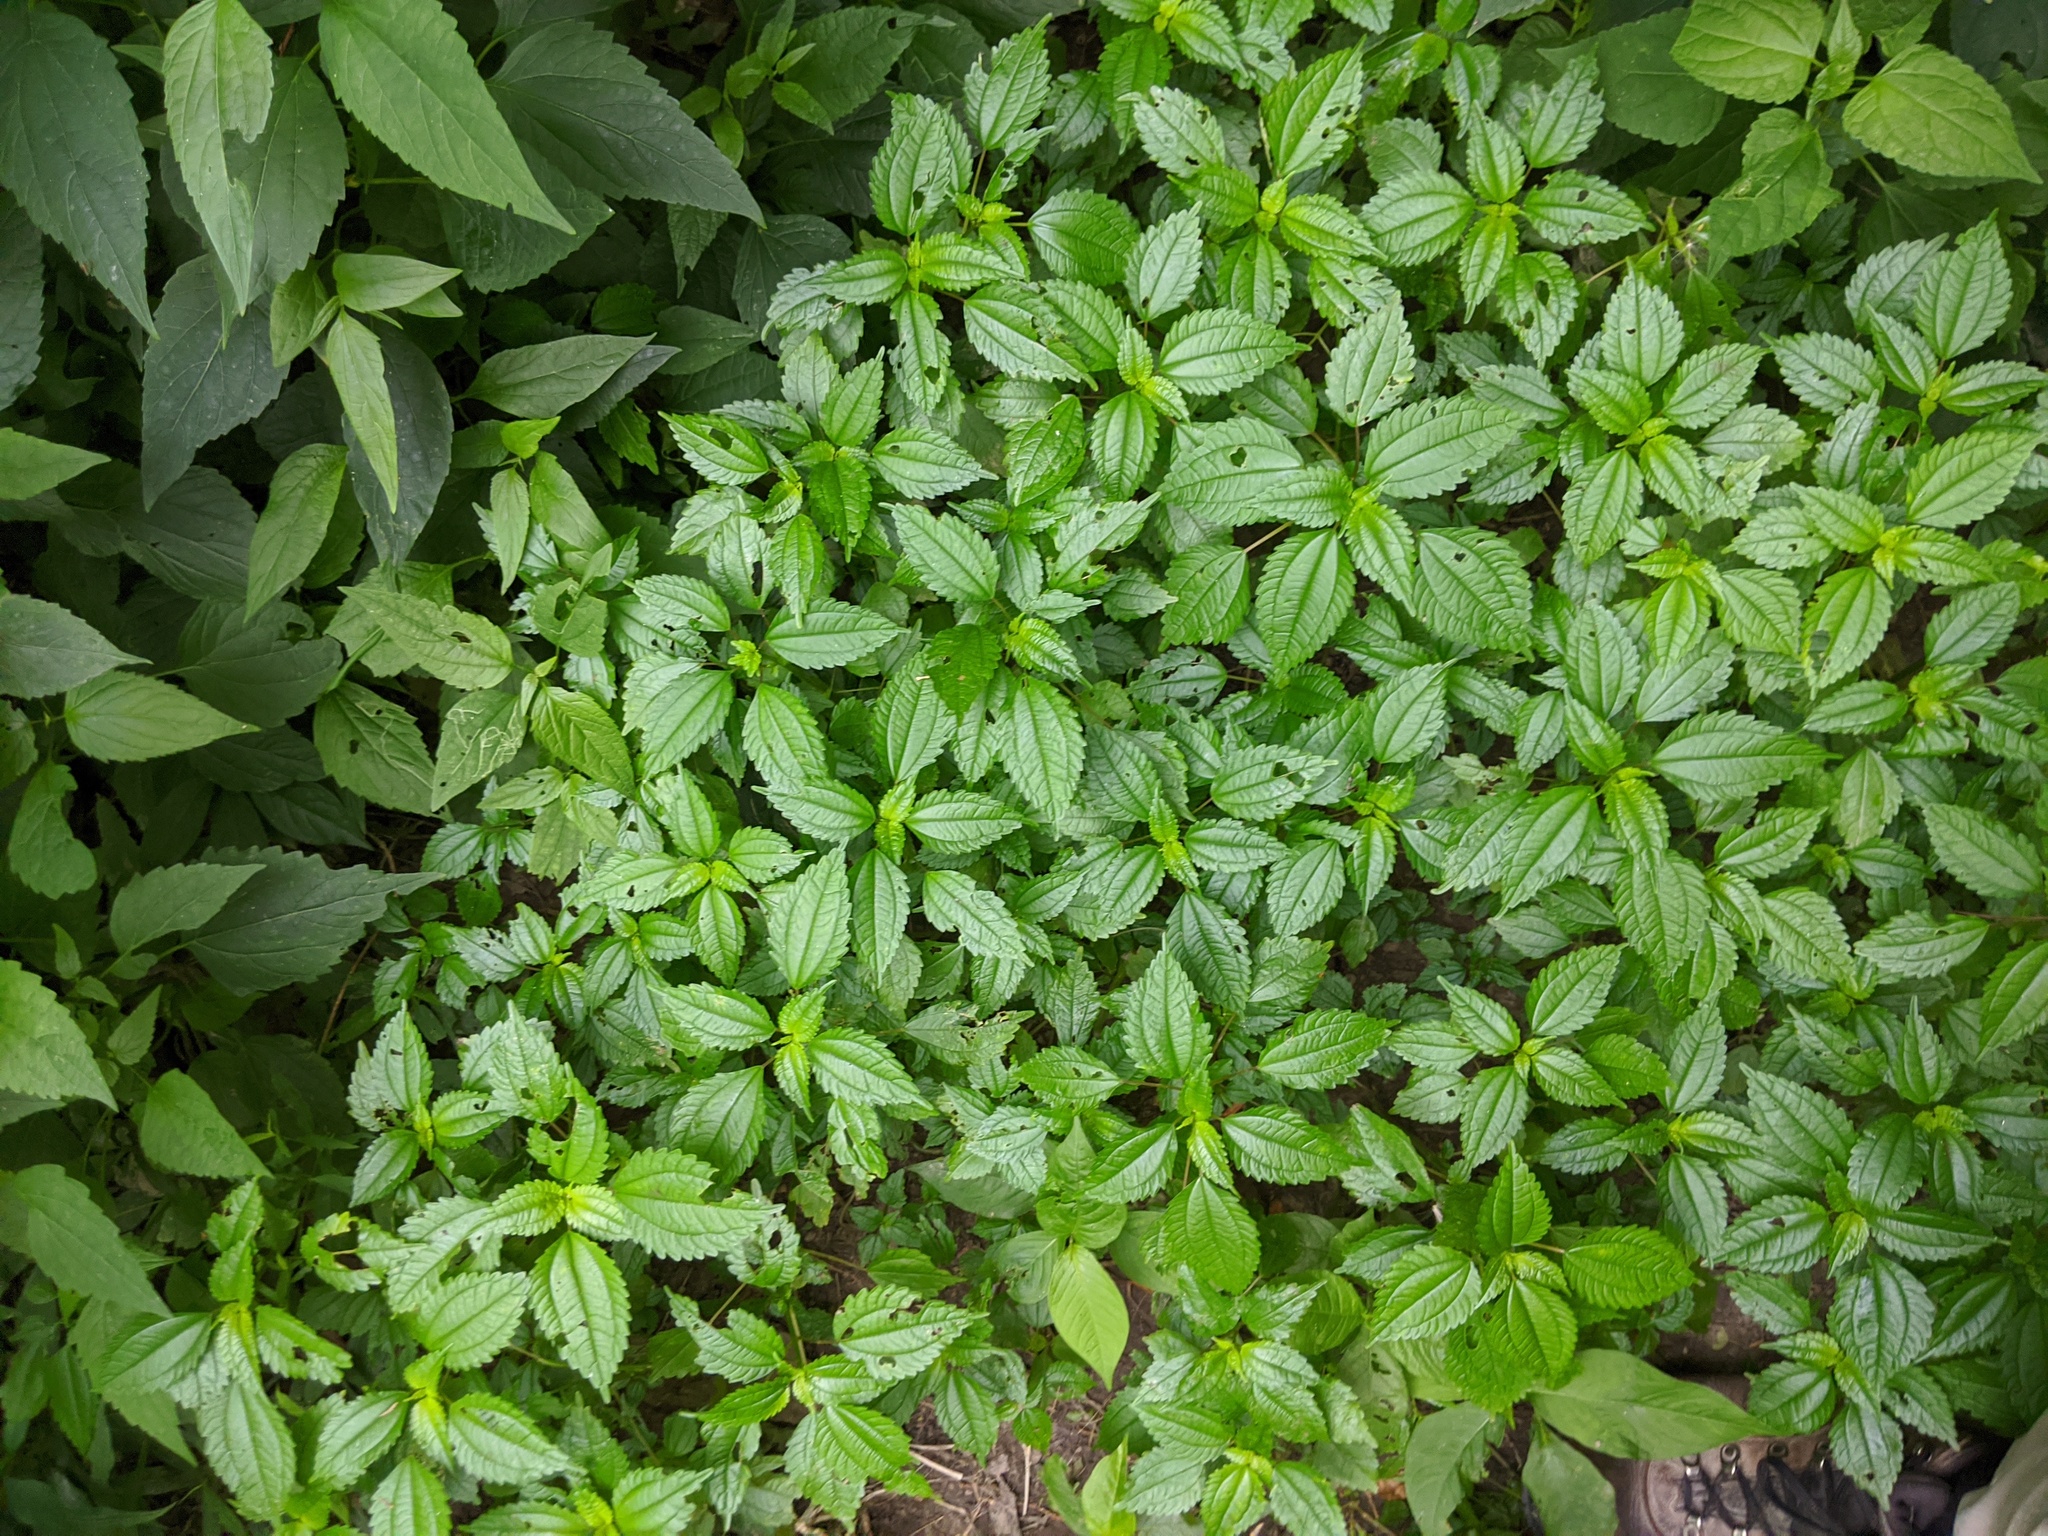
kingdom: Plantae
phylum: Tracheophyta
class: Magnoliopsida
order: Rosales
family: Urticaceae
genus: Pilea
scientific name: Pilea pumila
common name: Clearweed
